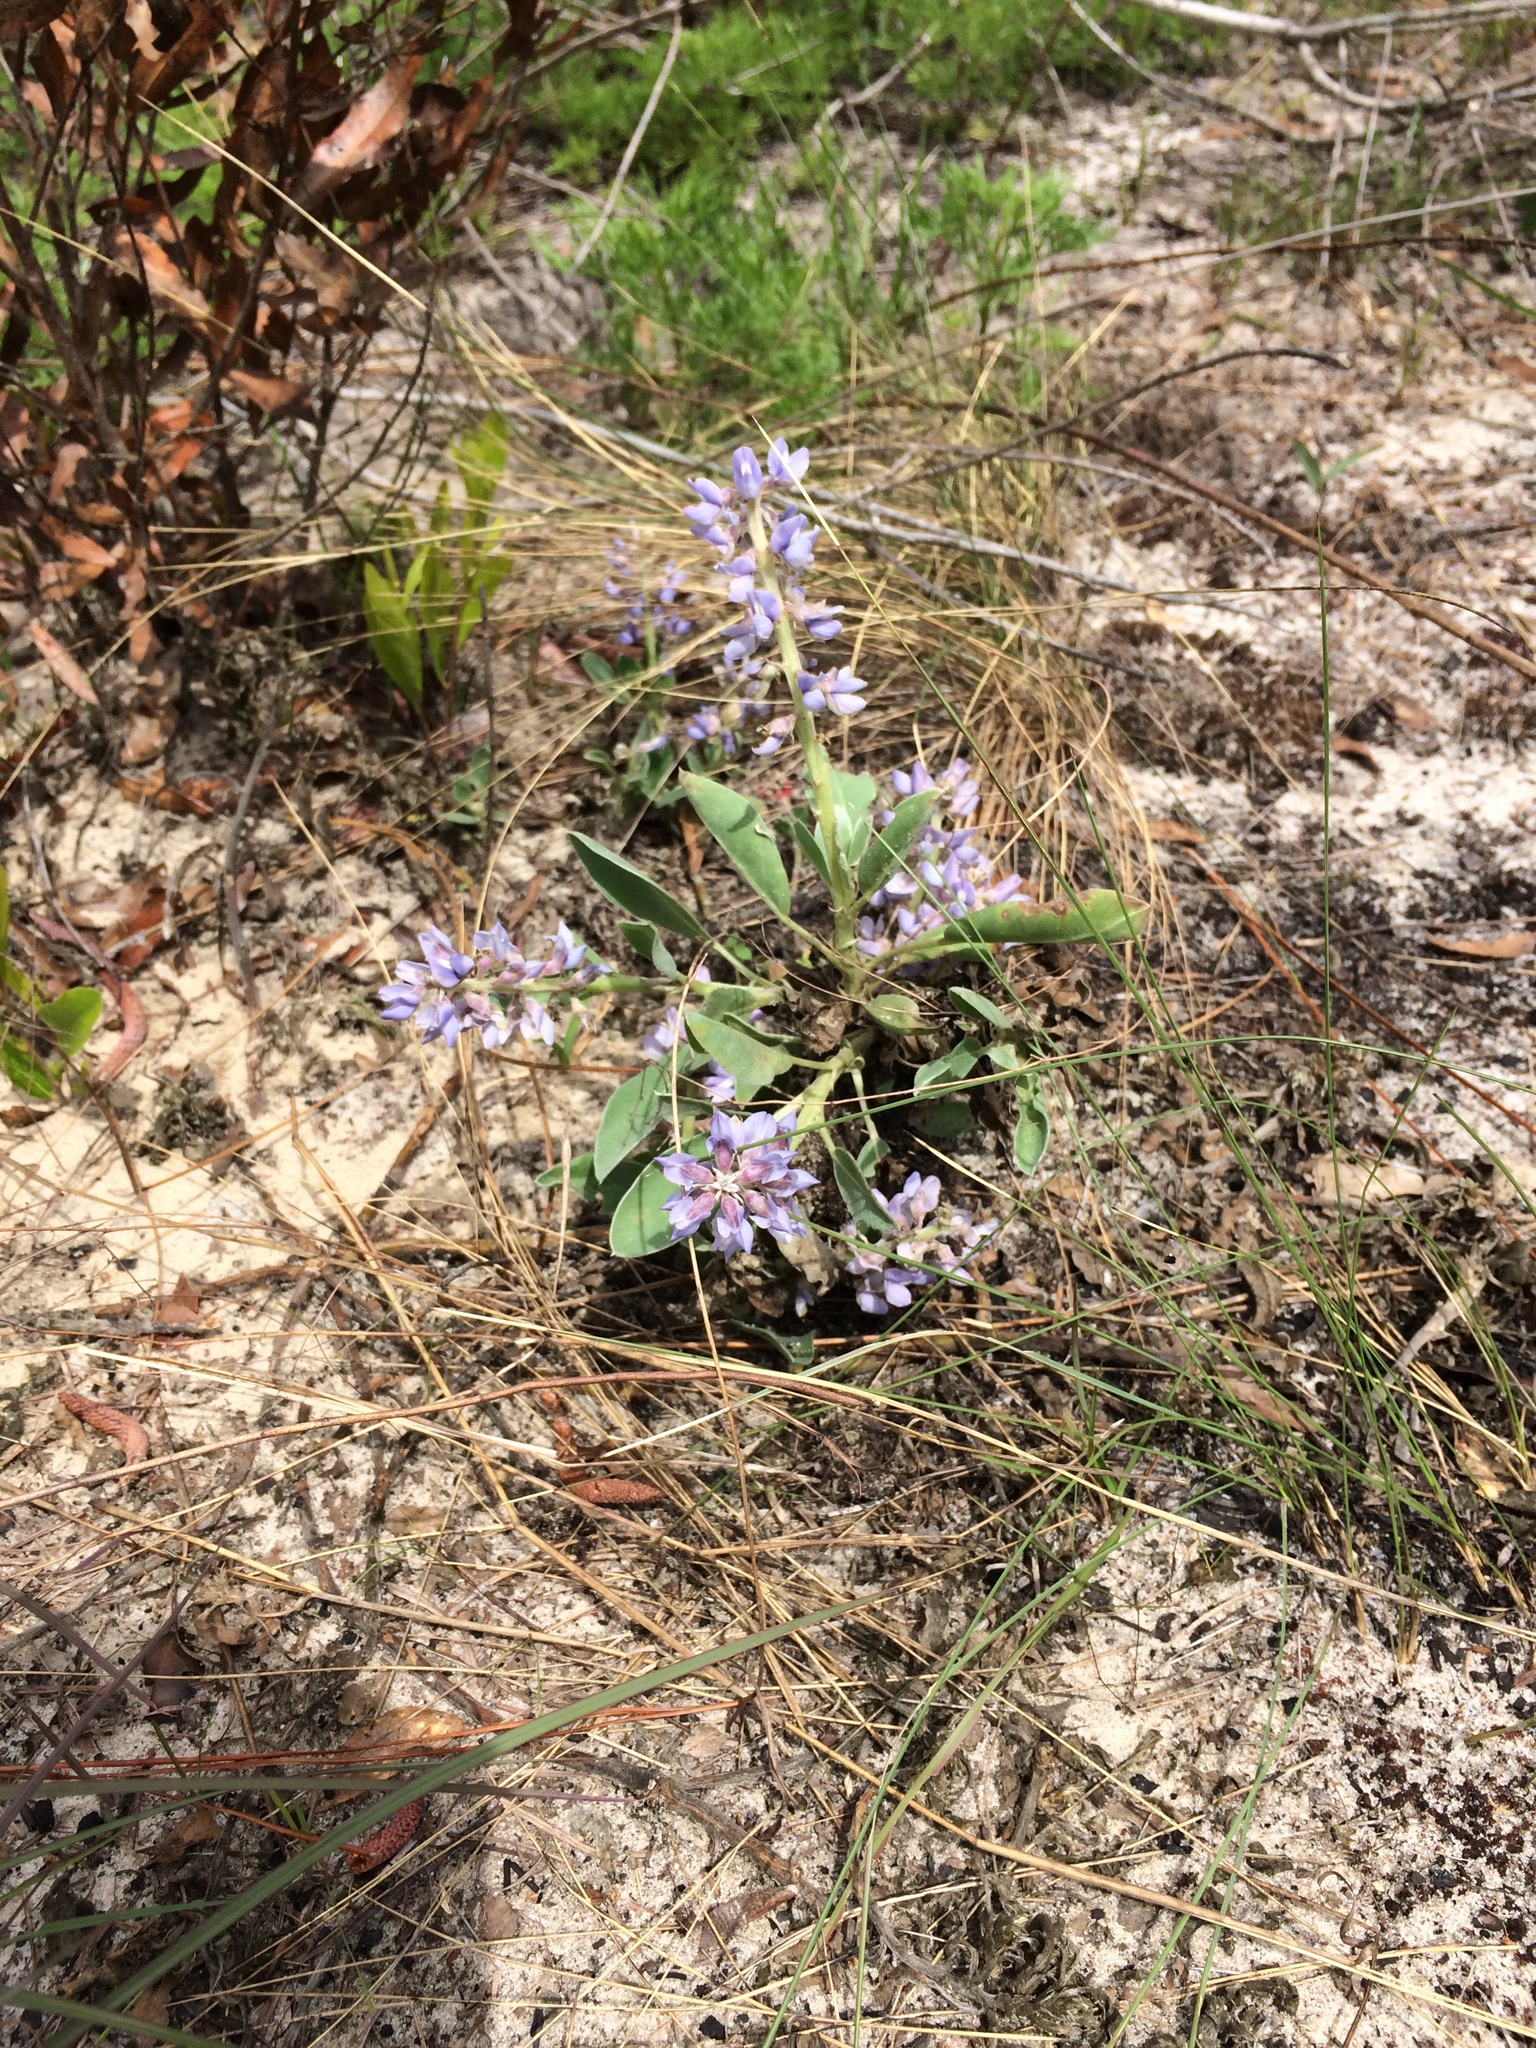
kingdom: Plantae
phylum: Tracheophyta
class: Magnoliopsida
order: Fabales
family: Fabaceae
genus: Lupinus
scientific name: Lupinus
